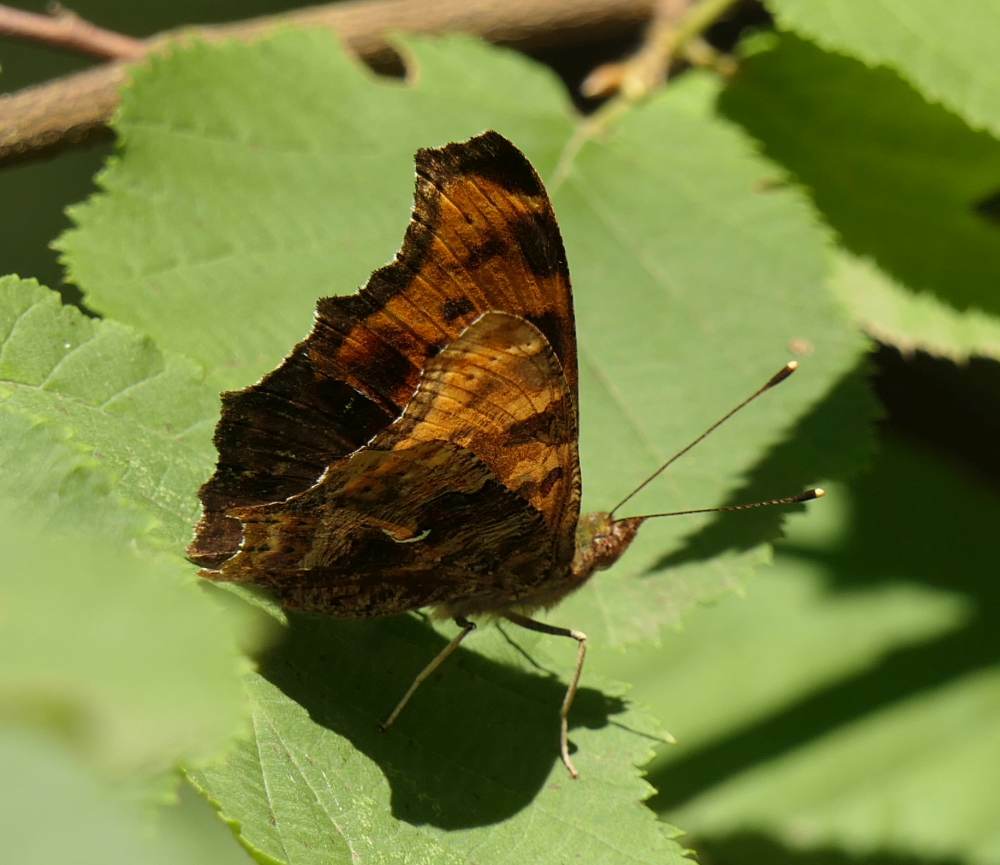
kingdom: Animalia
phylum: Arthropoda
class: Insecta
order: Lepidoptera
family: Nymphalidae
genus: Polygonia
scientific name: Polygonia comma
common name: Eastern comma
